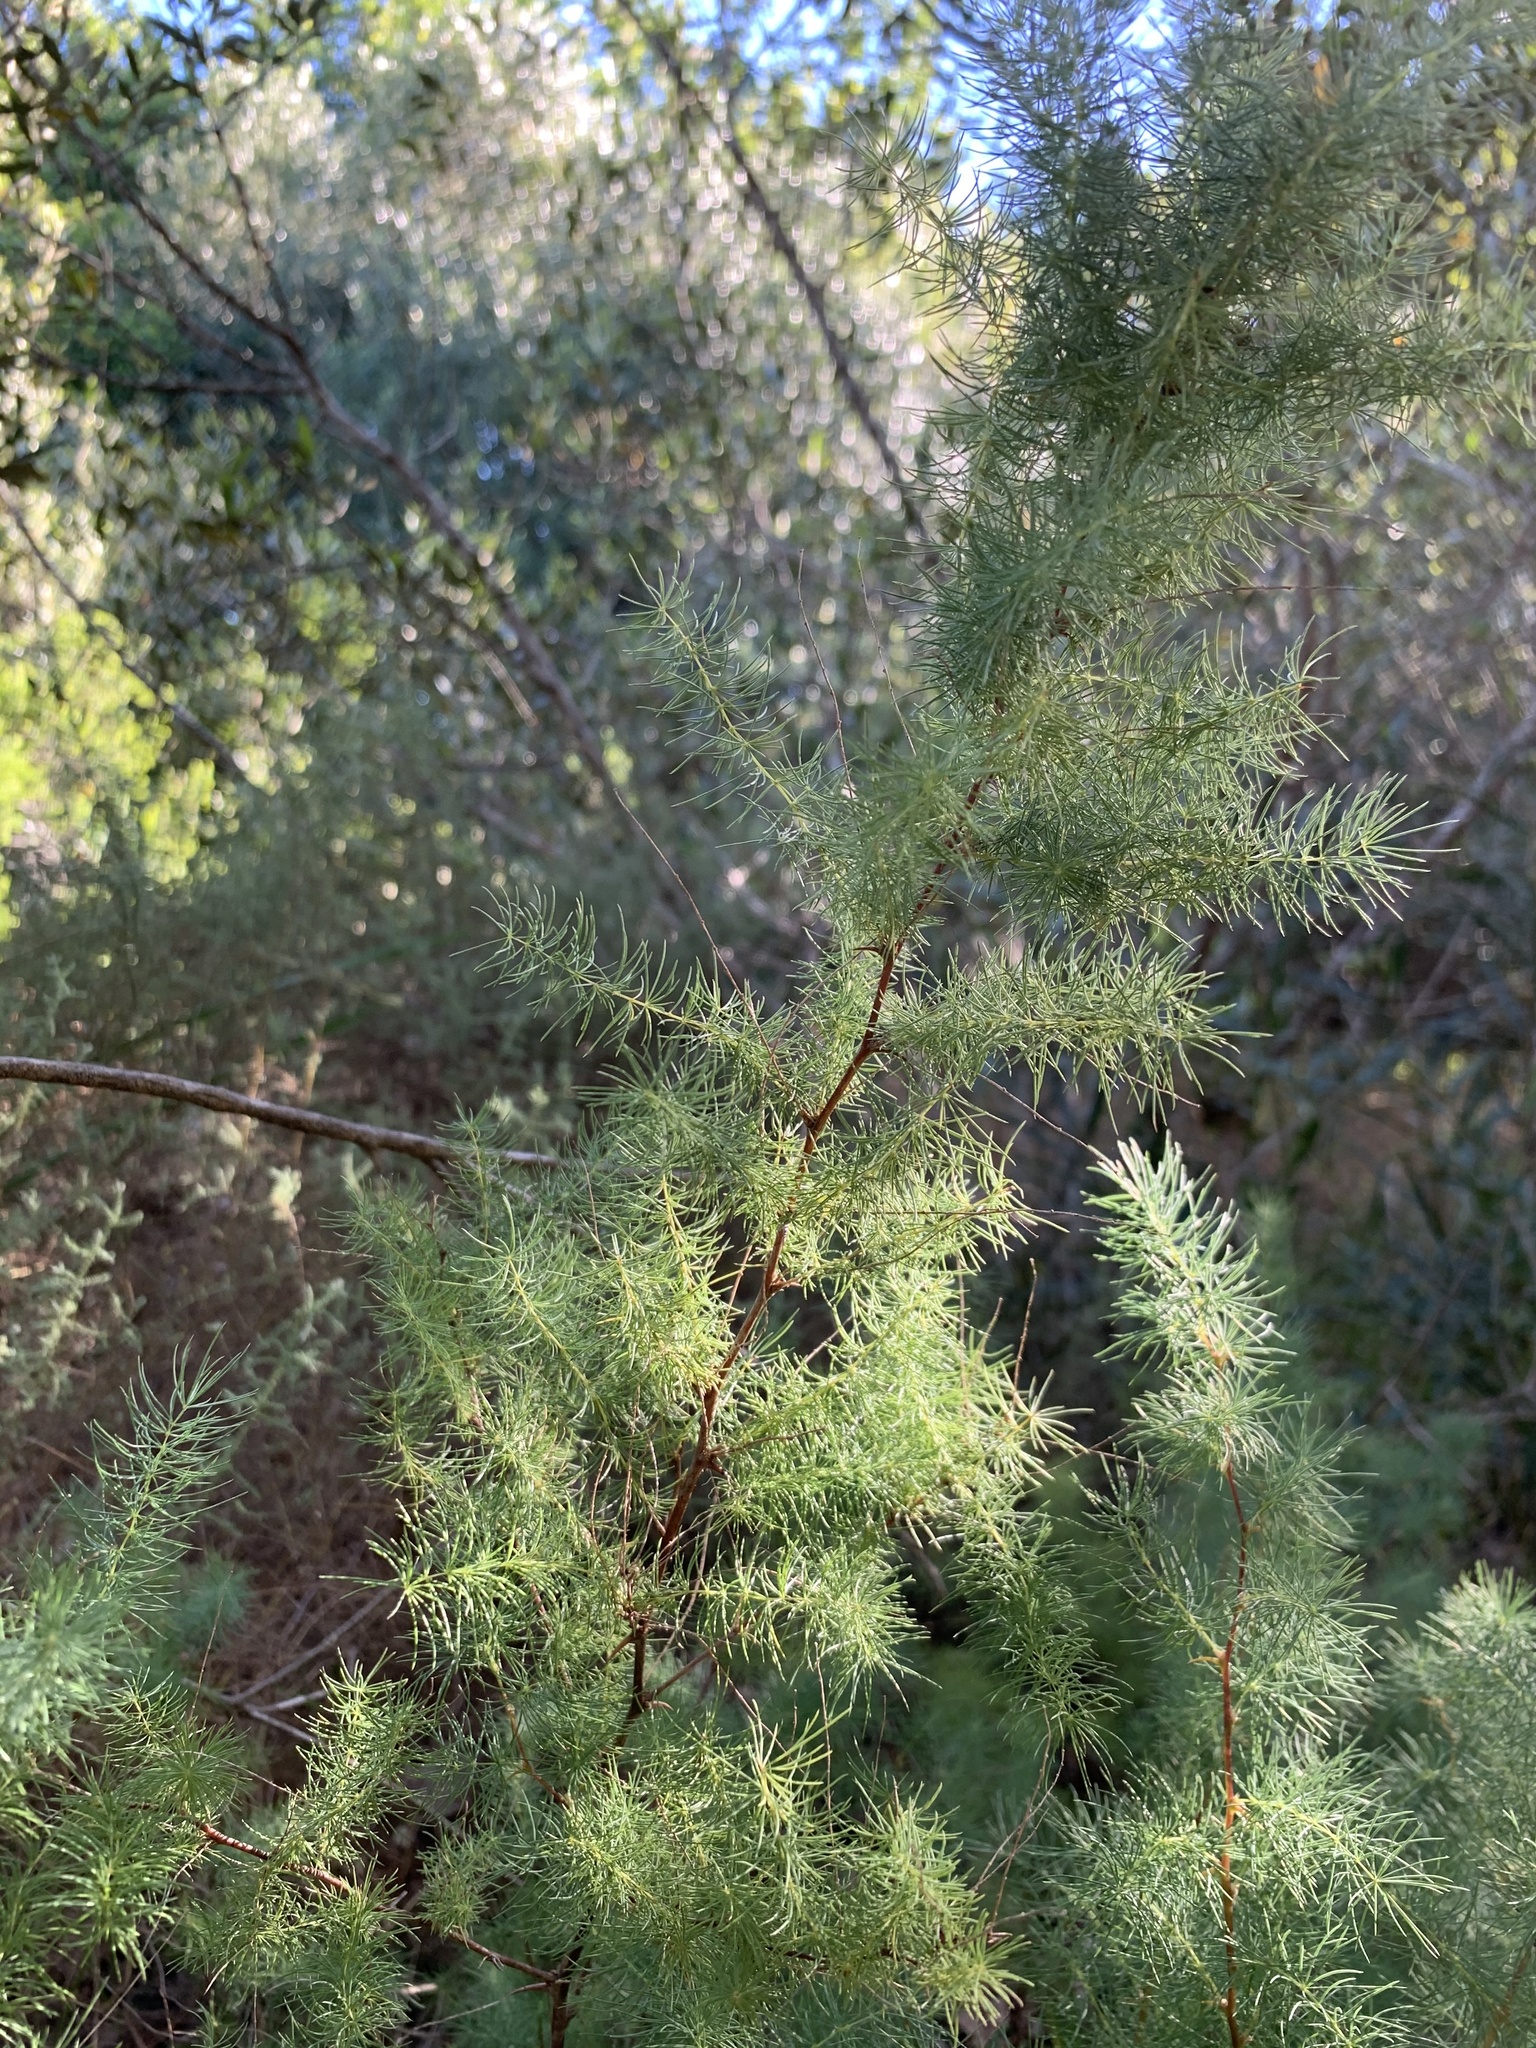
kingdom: Plantae
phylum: Tracheophyta
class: Liliopsida
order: Asparagales
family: Asparagaceae
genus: Asparagus
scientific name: Asparagus rubicundus
